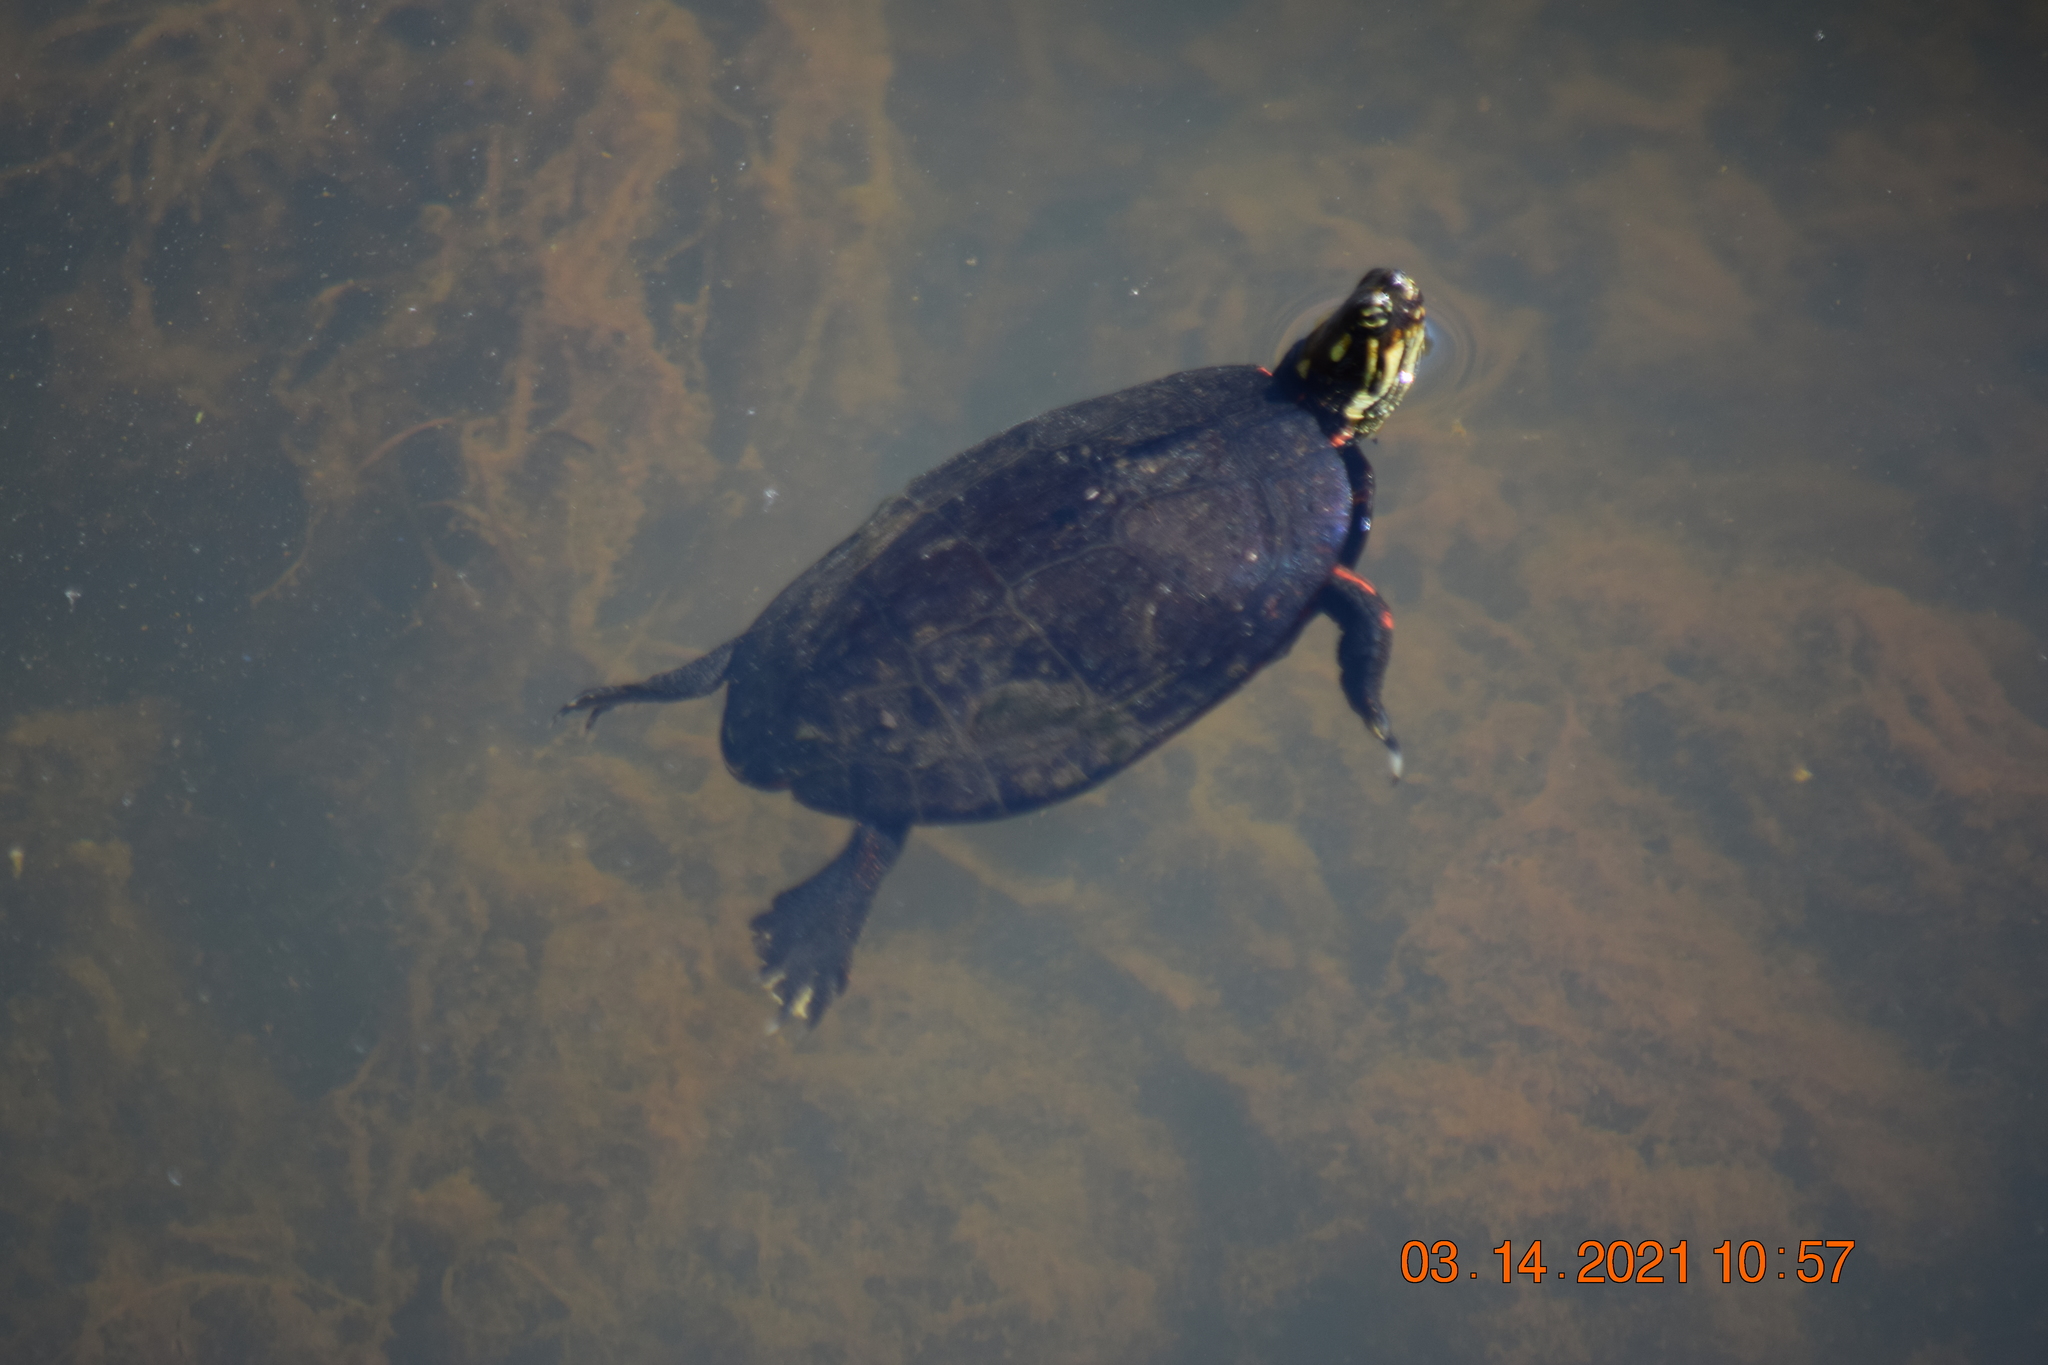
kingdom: Animalia
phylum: Chordata
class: Testudines
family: Emydidae
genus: Chrysemys
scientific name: Chrysemys picta
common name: Painted turtle
